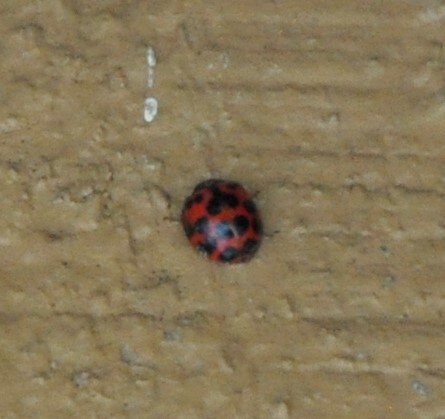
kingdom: Animalia
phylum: Arthropoda
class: Insecta
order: Coleoptera
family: Coccinellidae
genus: Harmonia
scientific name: Harmonia axyridis
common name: Harlequin ladybird
